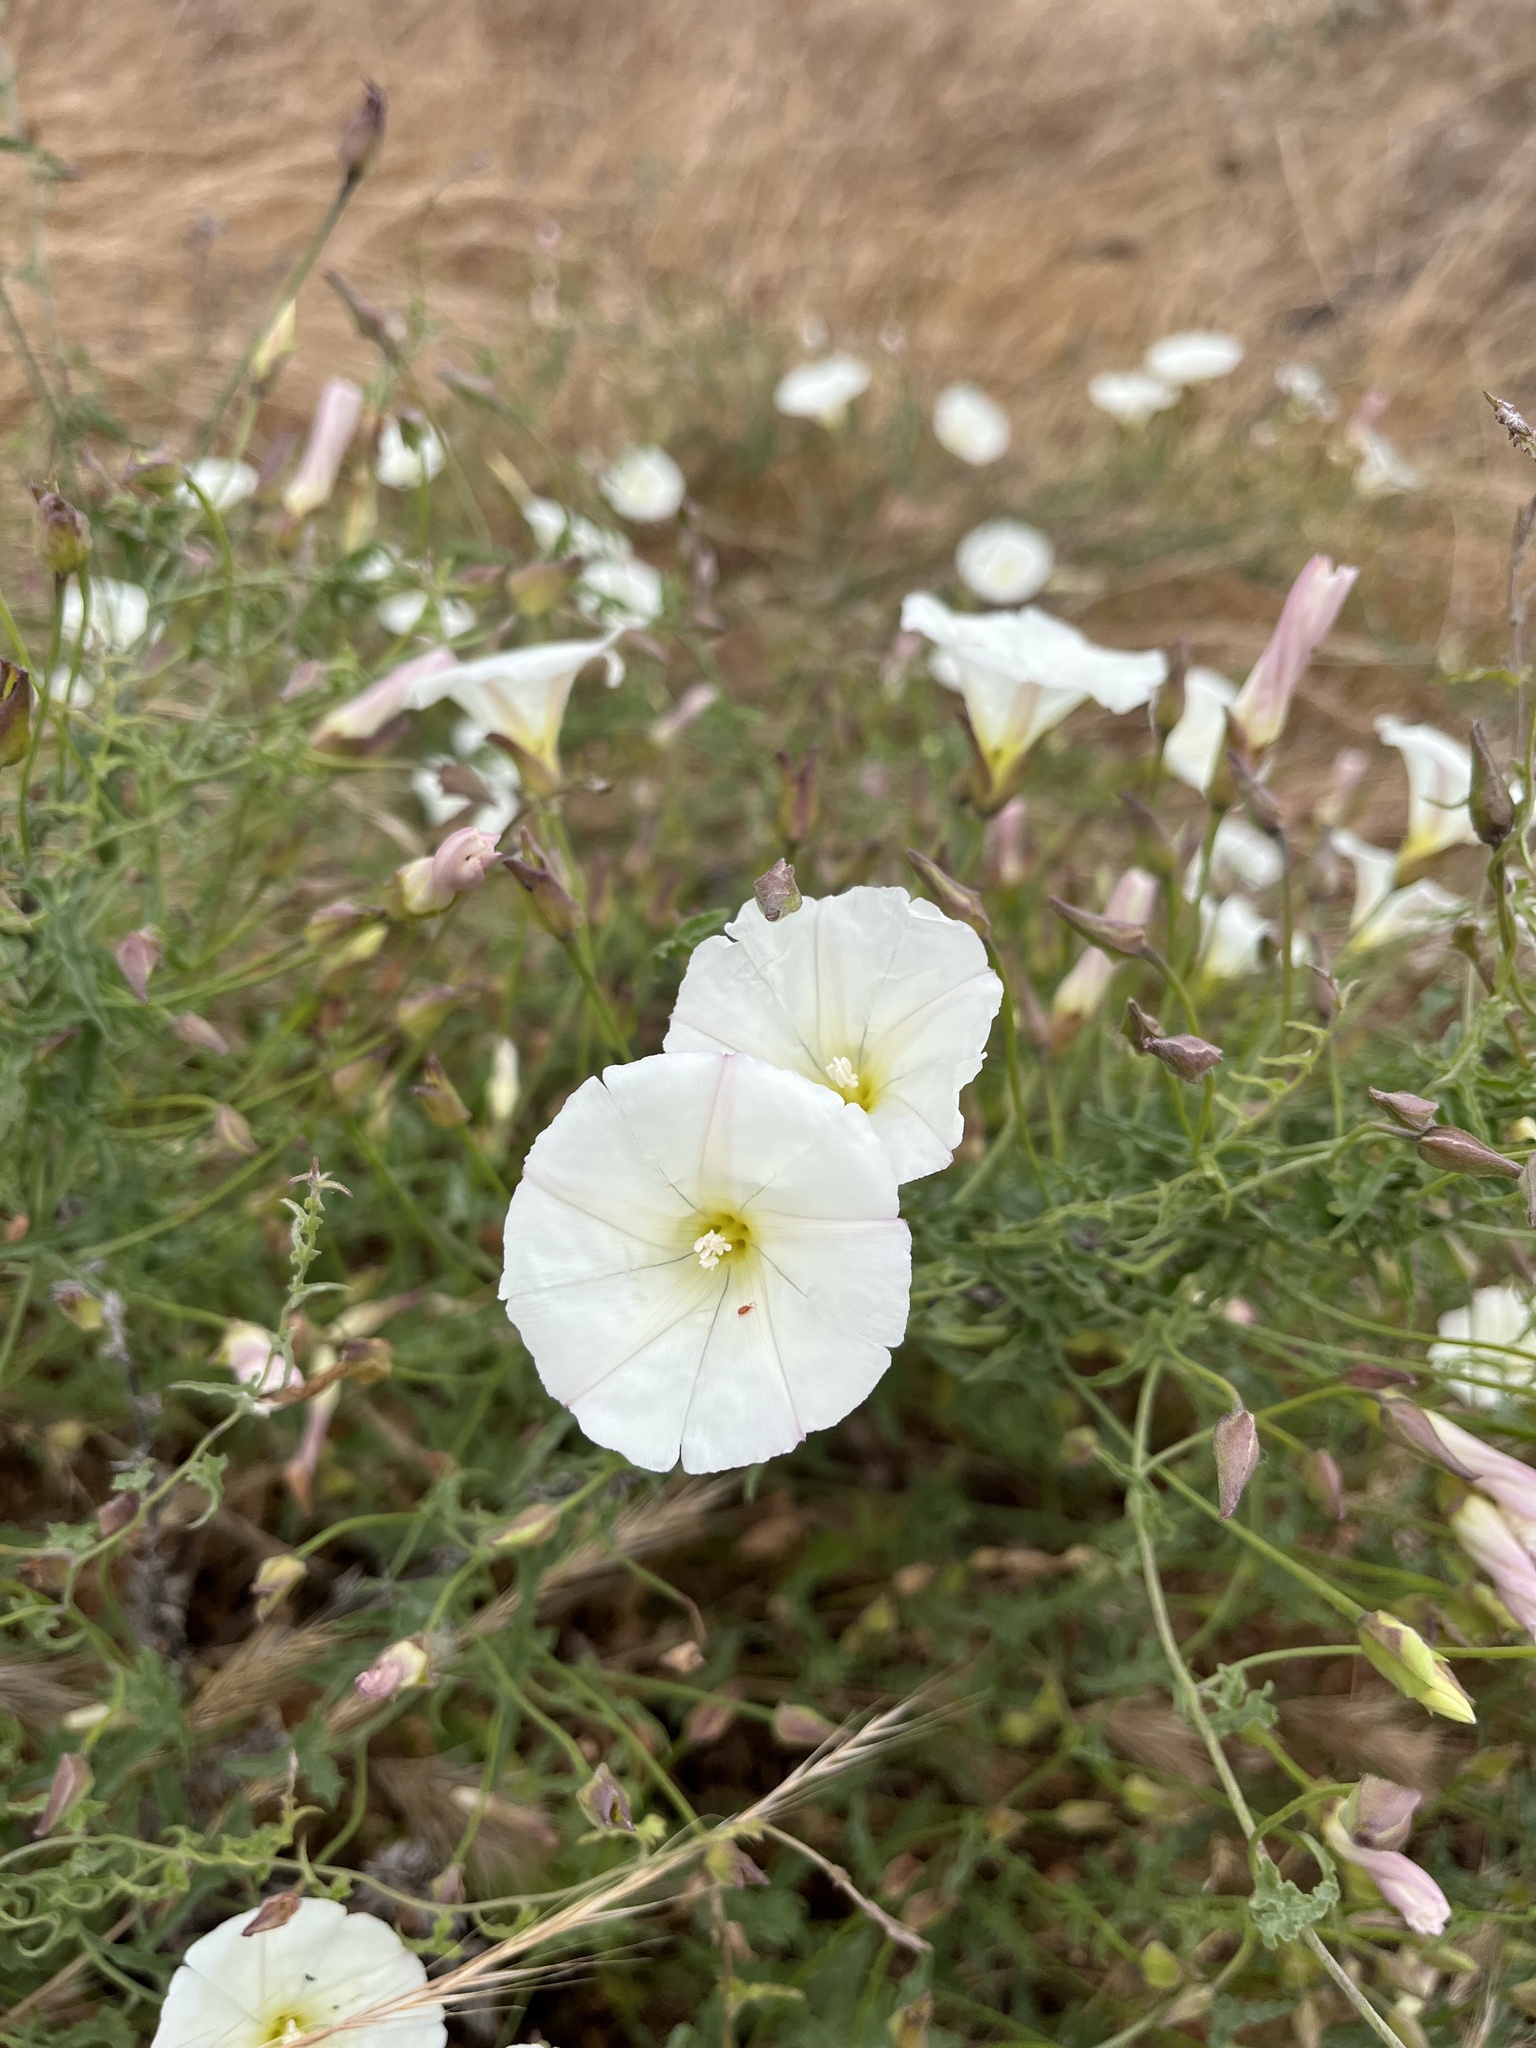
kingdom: Plantae
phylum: Tracheophyta
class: Magnoliopsida
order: Solanales
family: Convolvulaceae
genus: Calystegia
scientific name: Calystegia macrostegia
